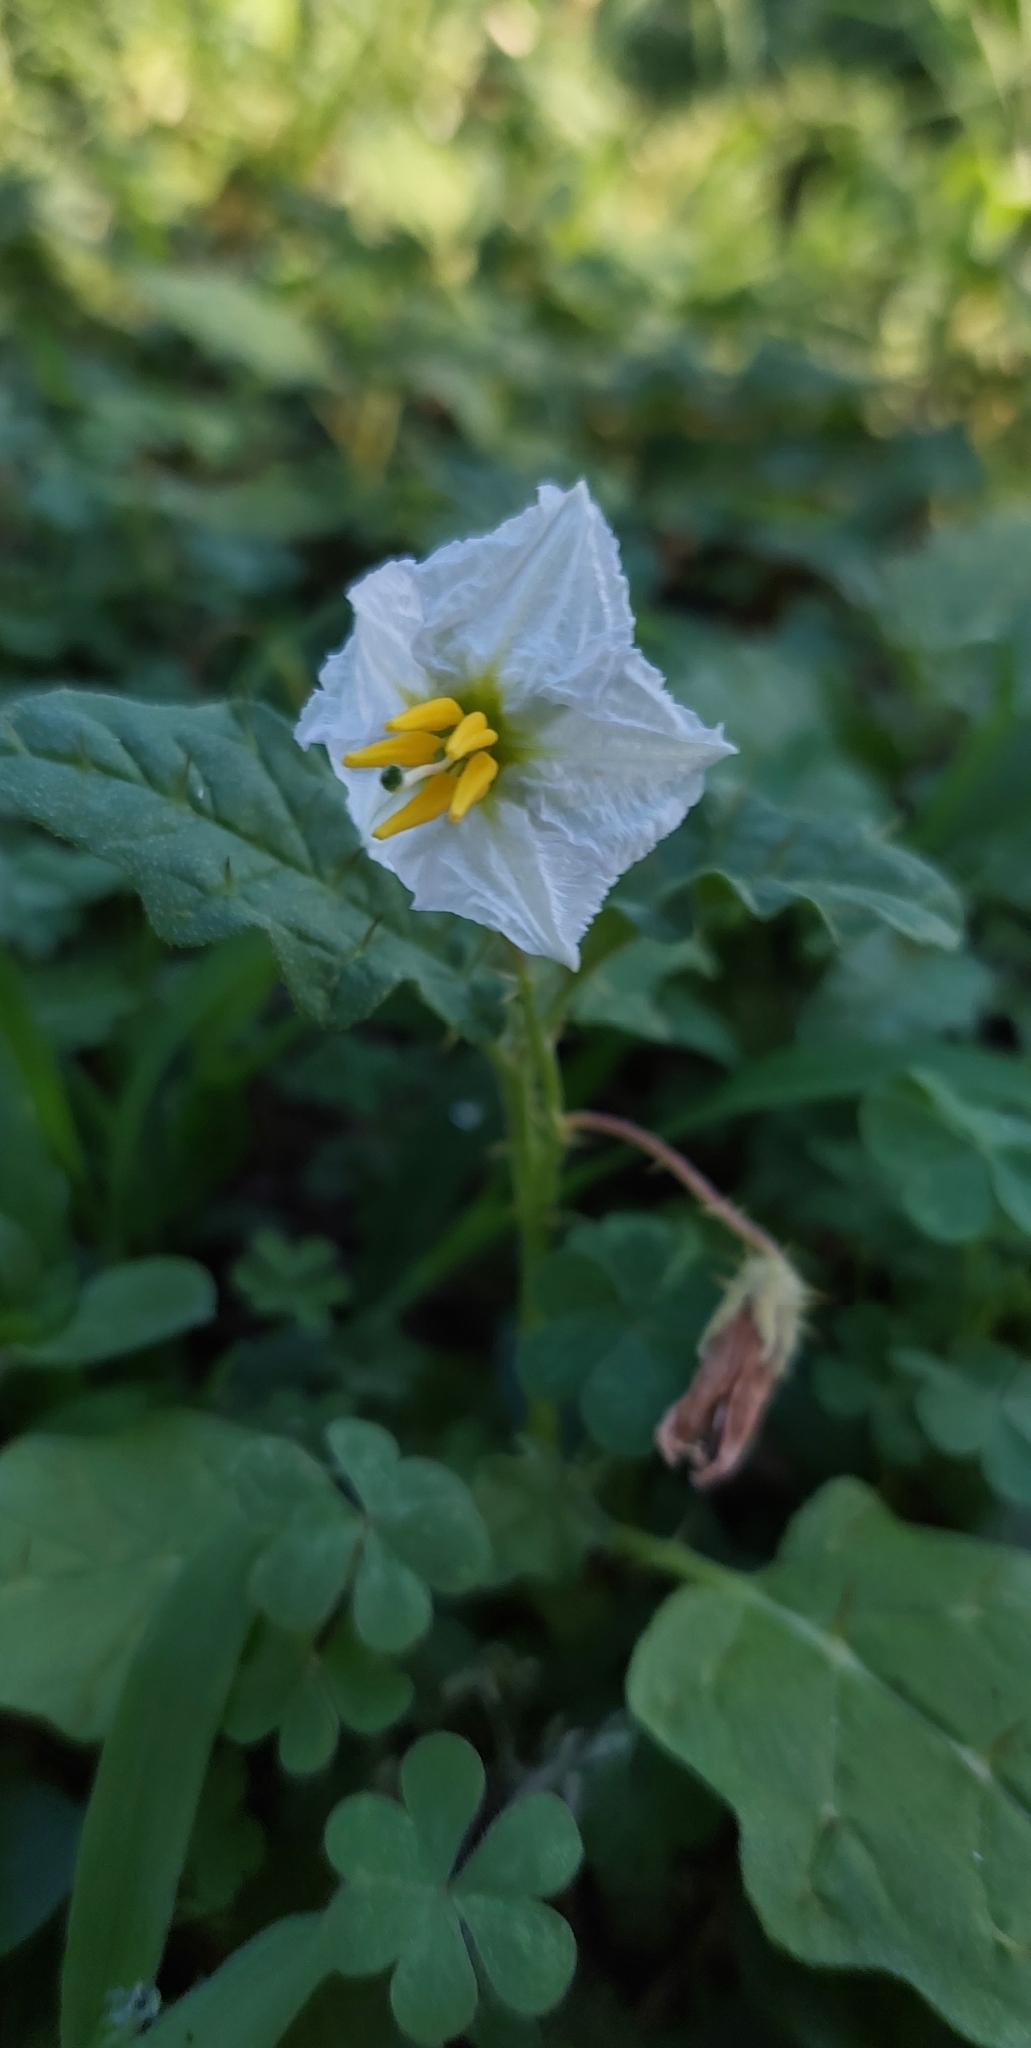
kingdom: Plantae
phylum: Tracheophyta
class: Magnoliopsida
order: Solanales
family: Solanaceae
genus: Solanum
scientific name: Solanum juvenale
